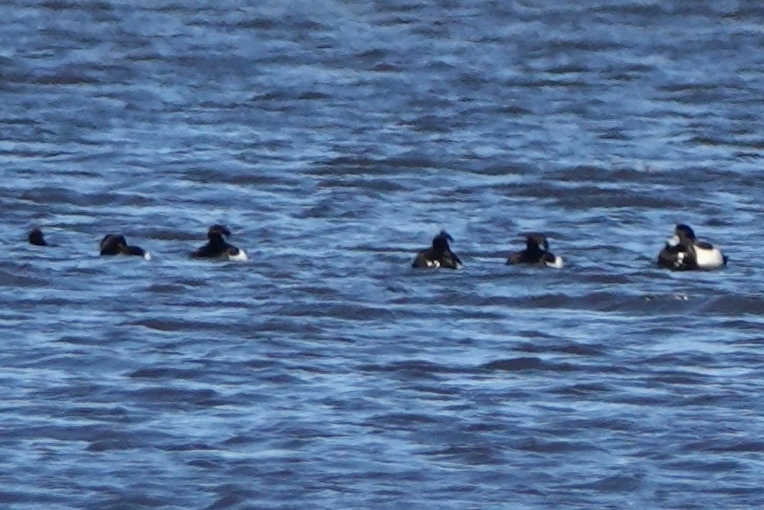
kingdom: Animalia
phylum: Chordata
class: Aves
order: Anseriformes
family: Anatidae
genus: Aythya
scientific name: Aythya fuligula
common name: Tufted duck
